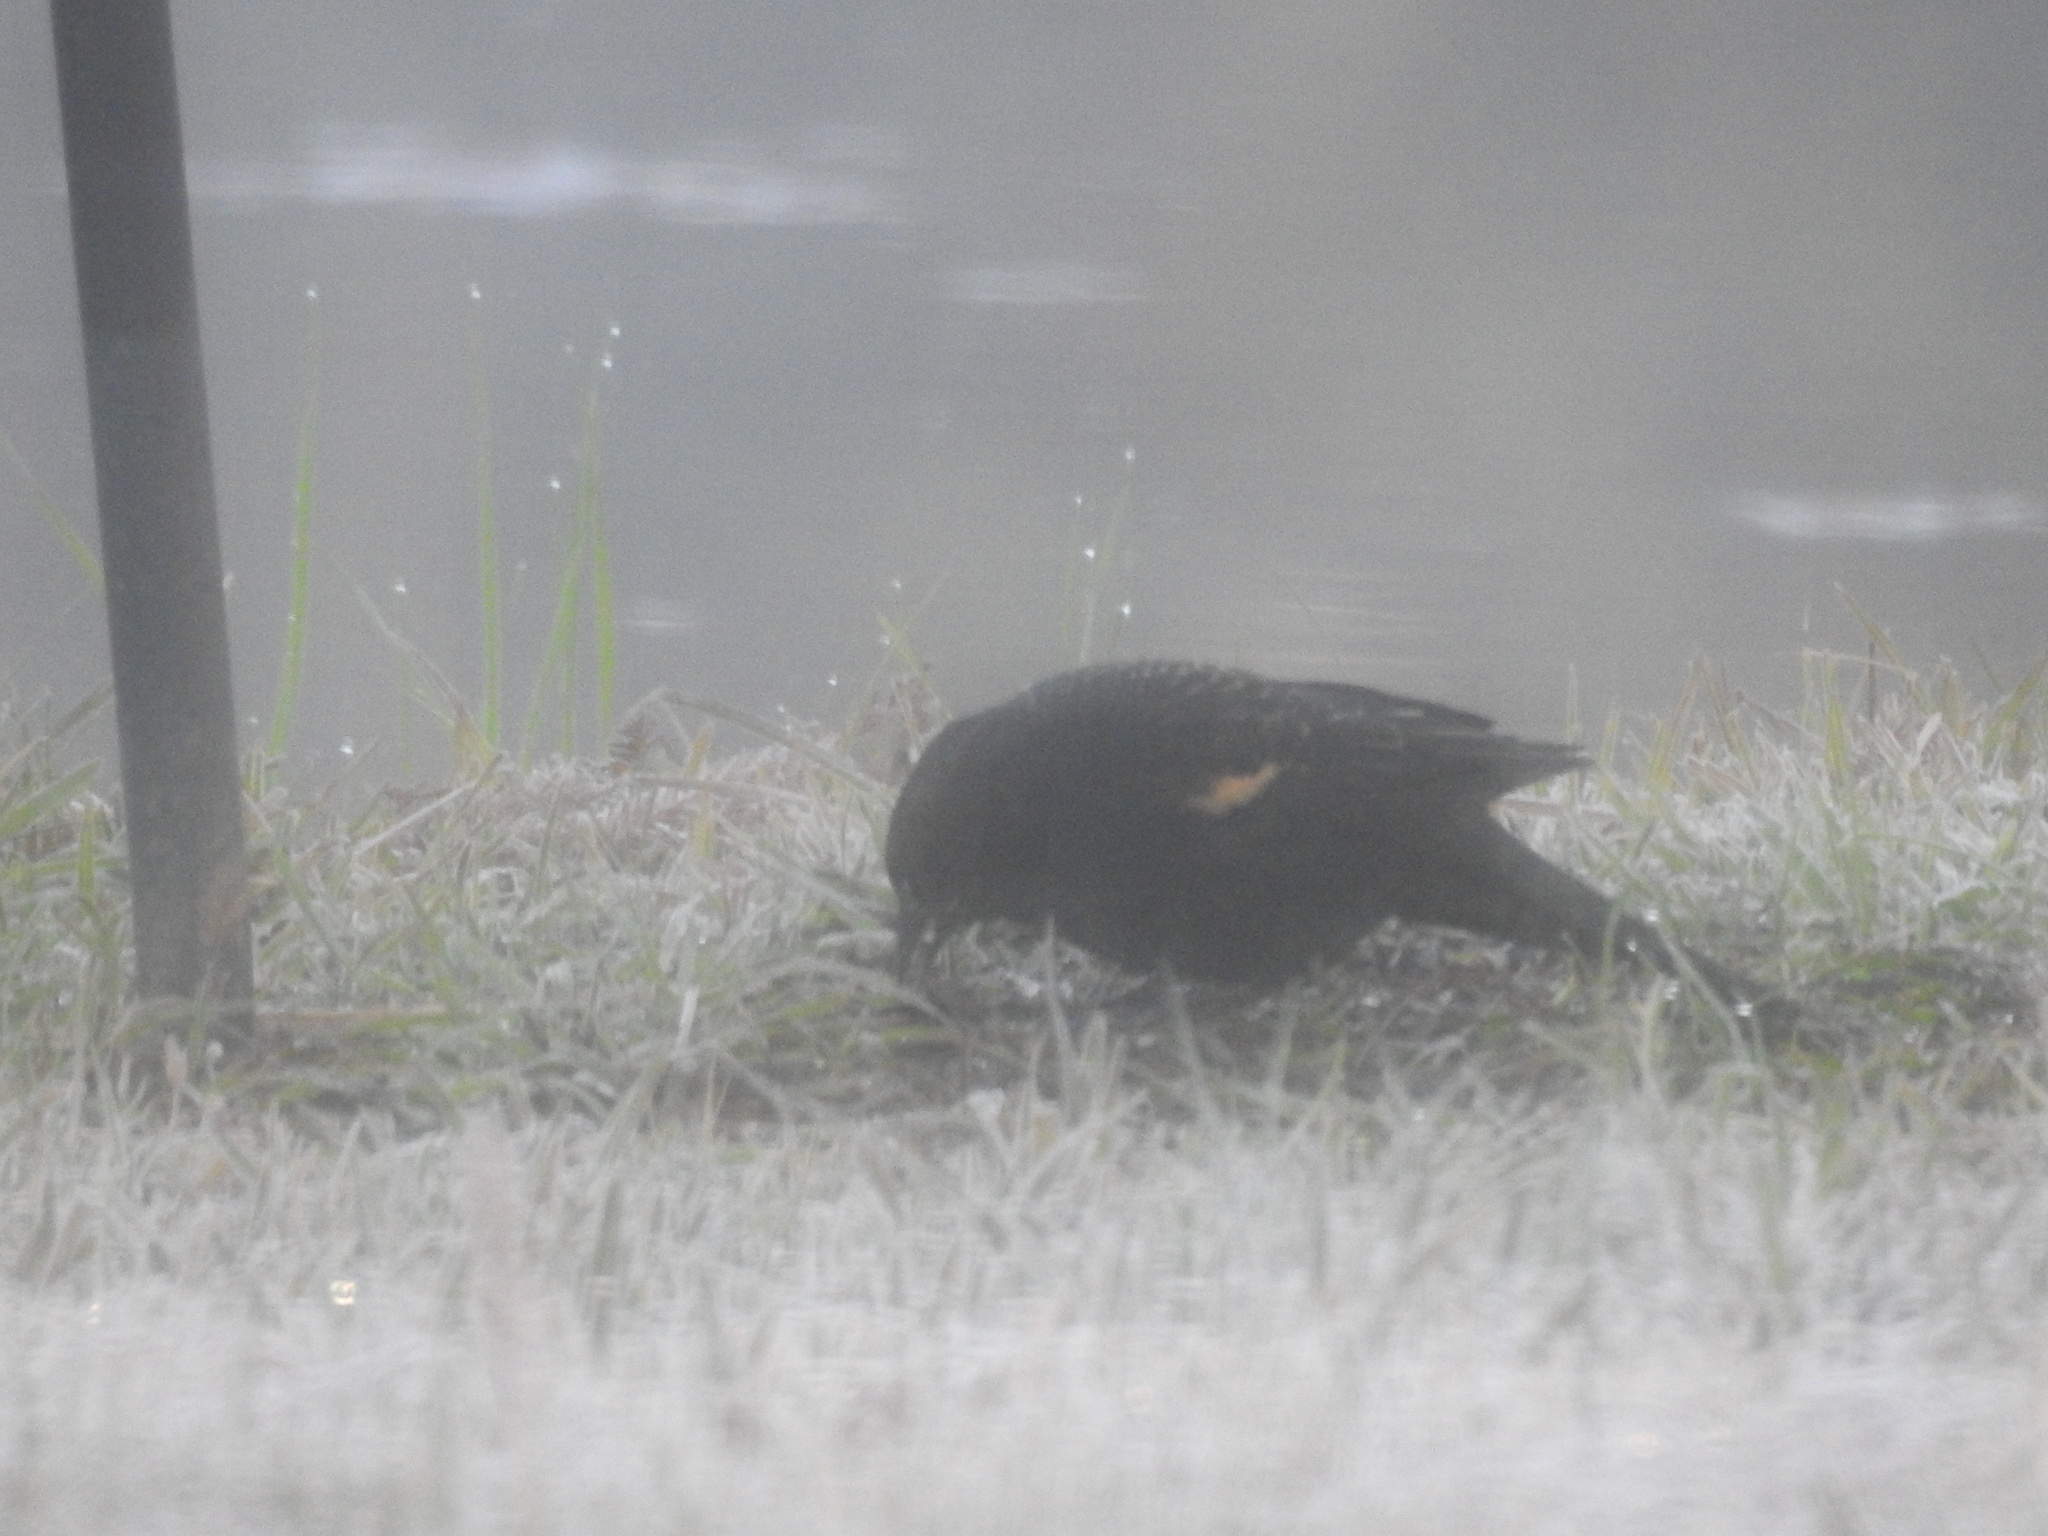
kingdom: Animalia
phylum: Chordata
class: Aves
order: Passeriformes
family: Icteridae
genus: Agelaius
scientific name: Agelaius phoeniceus
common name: Red-winged blackbird
